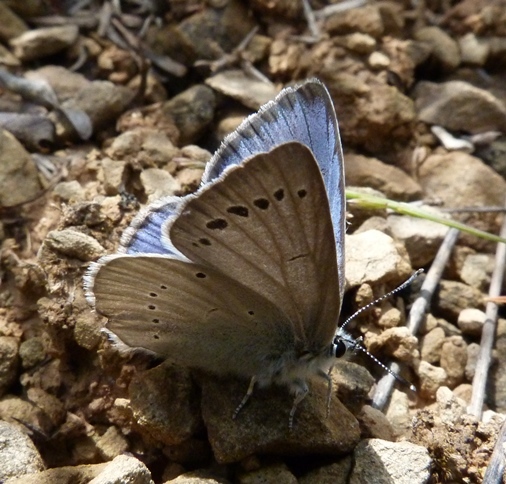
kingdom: Animalia
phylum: Arthropoda
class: Insecta
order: Lepidoptera
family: Lycaenidae
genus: Iolana
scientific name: Iolana debilitata
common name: Iolas blue
